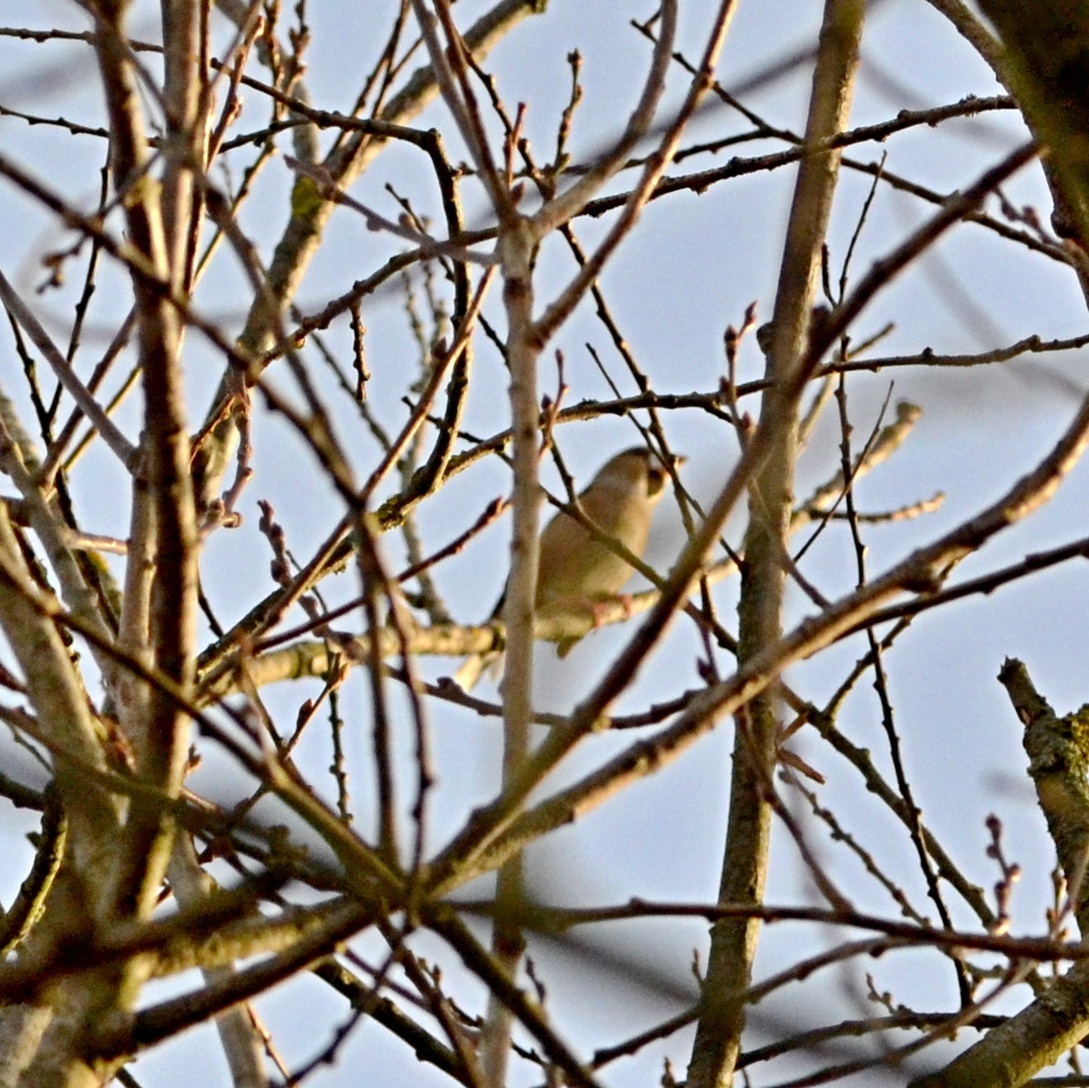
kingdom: Animalia
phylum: Chordata
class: Aves
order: Passeriformes
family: Fringillidae
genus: Coccothraustes
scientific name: Coccothraustes coccothraustes
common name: Hawfinch
